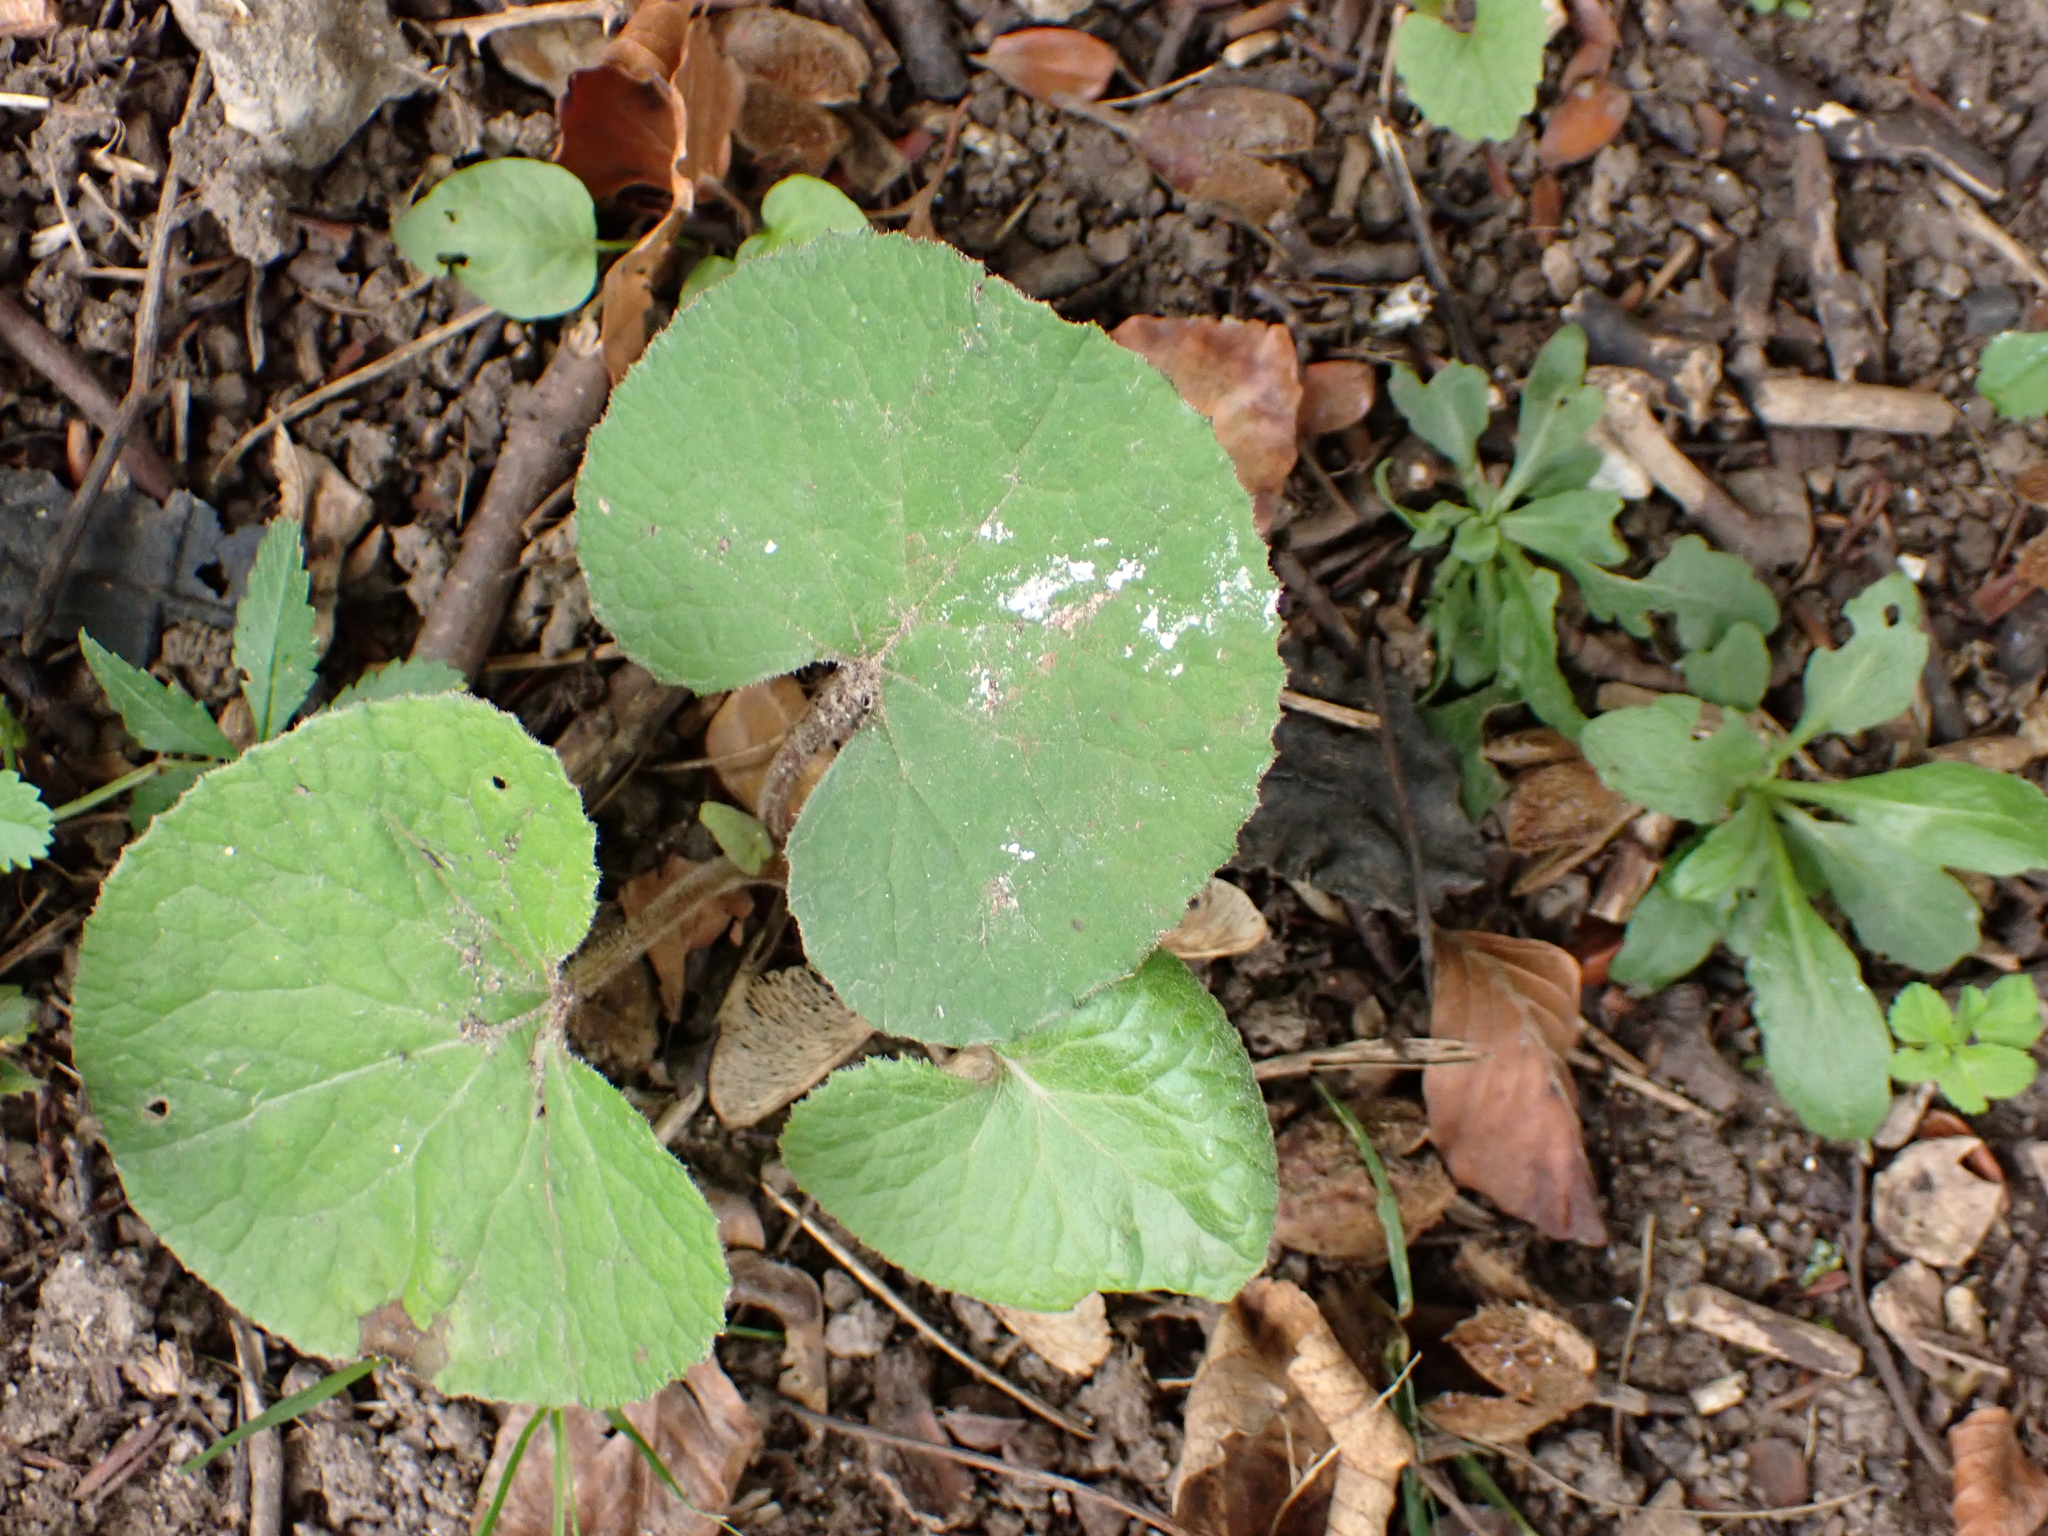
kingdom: Plantae
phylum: Tracheophyta
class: Magnoliopsida
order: Asterales
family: Asteraceae
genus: Petasites
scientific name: Petasites pyrenaicus
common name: Winter heliotrope
